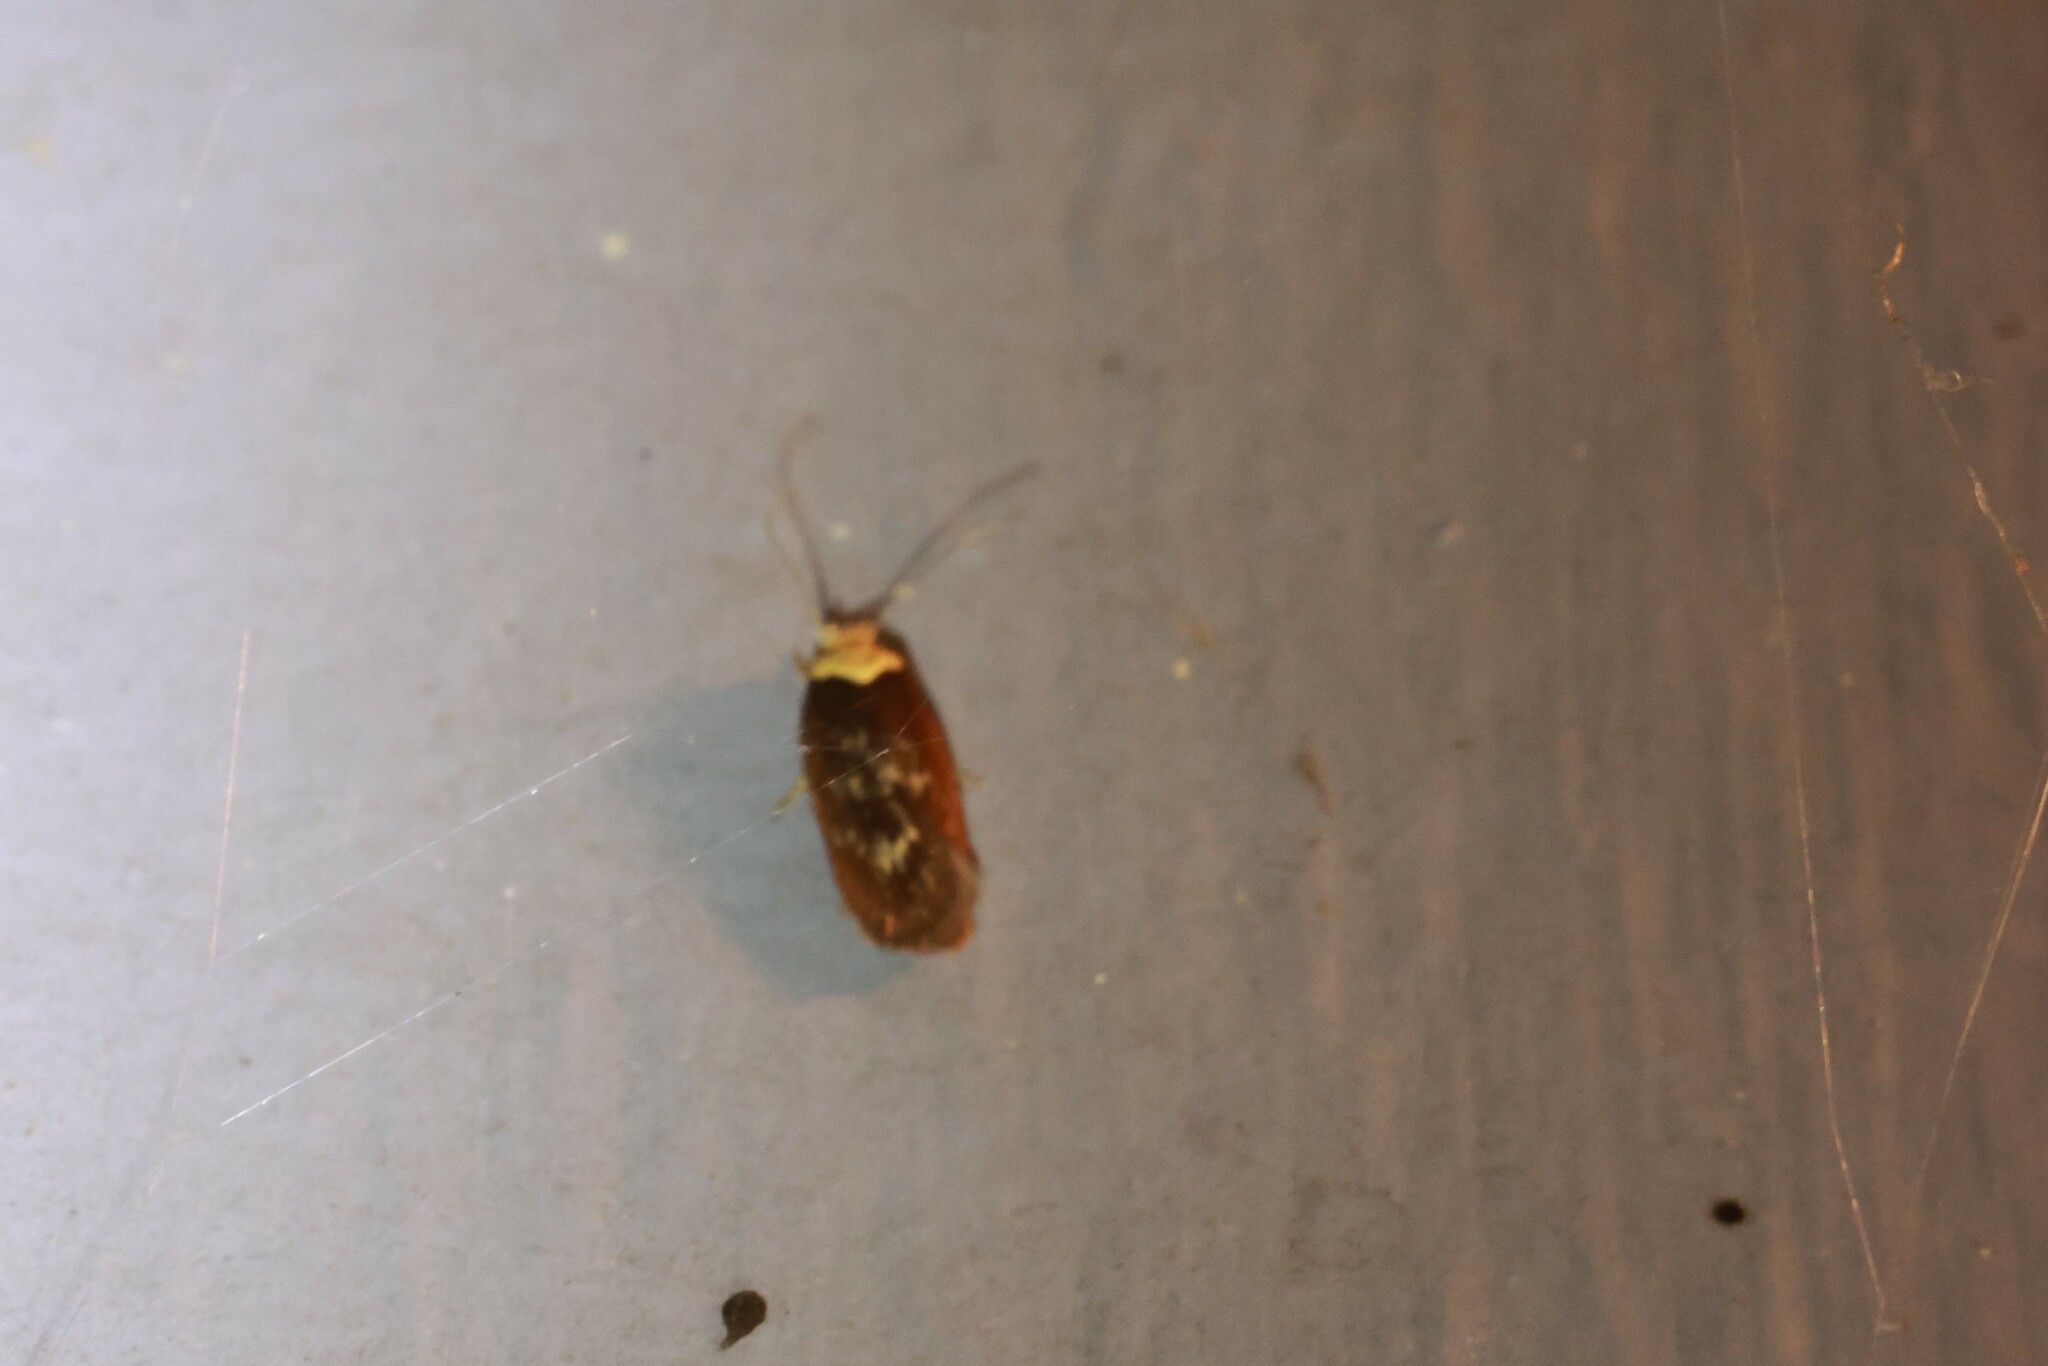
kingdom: Animalia
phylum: Arthropoda
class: Insecta
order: Lepidoptera
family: Depressariidae
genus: Depressaria
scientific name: Depressaria depressana
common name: Lost flat-body
